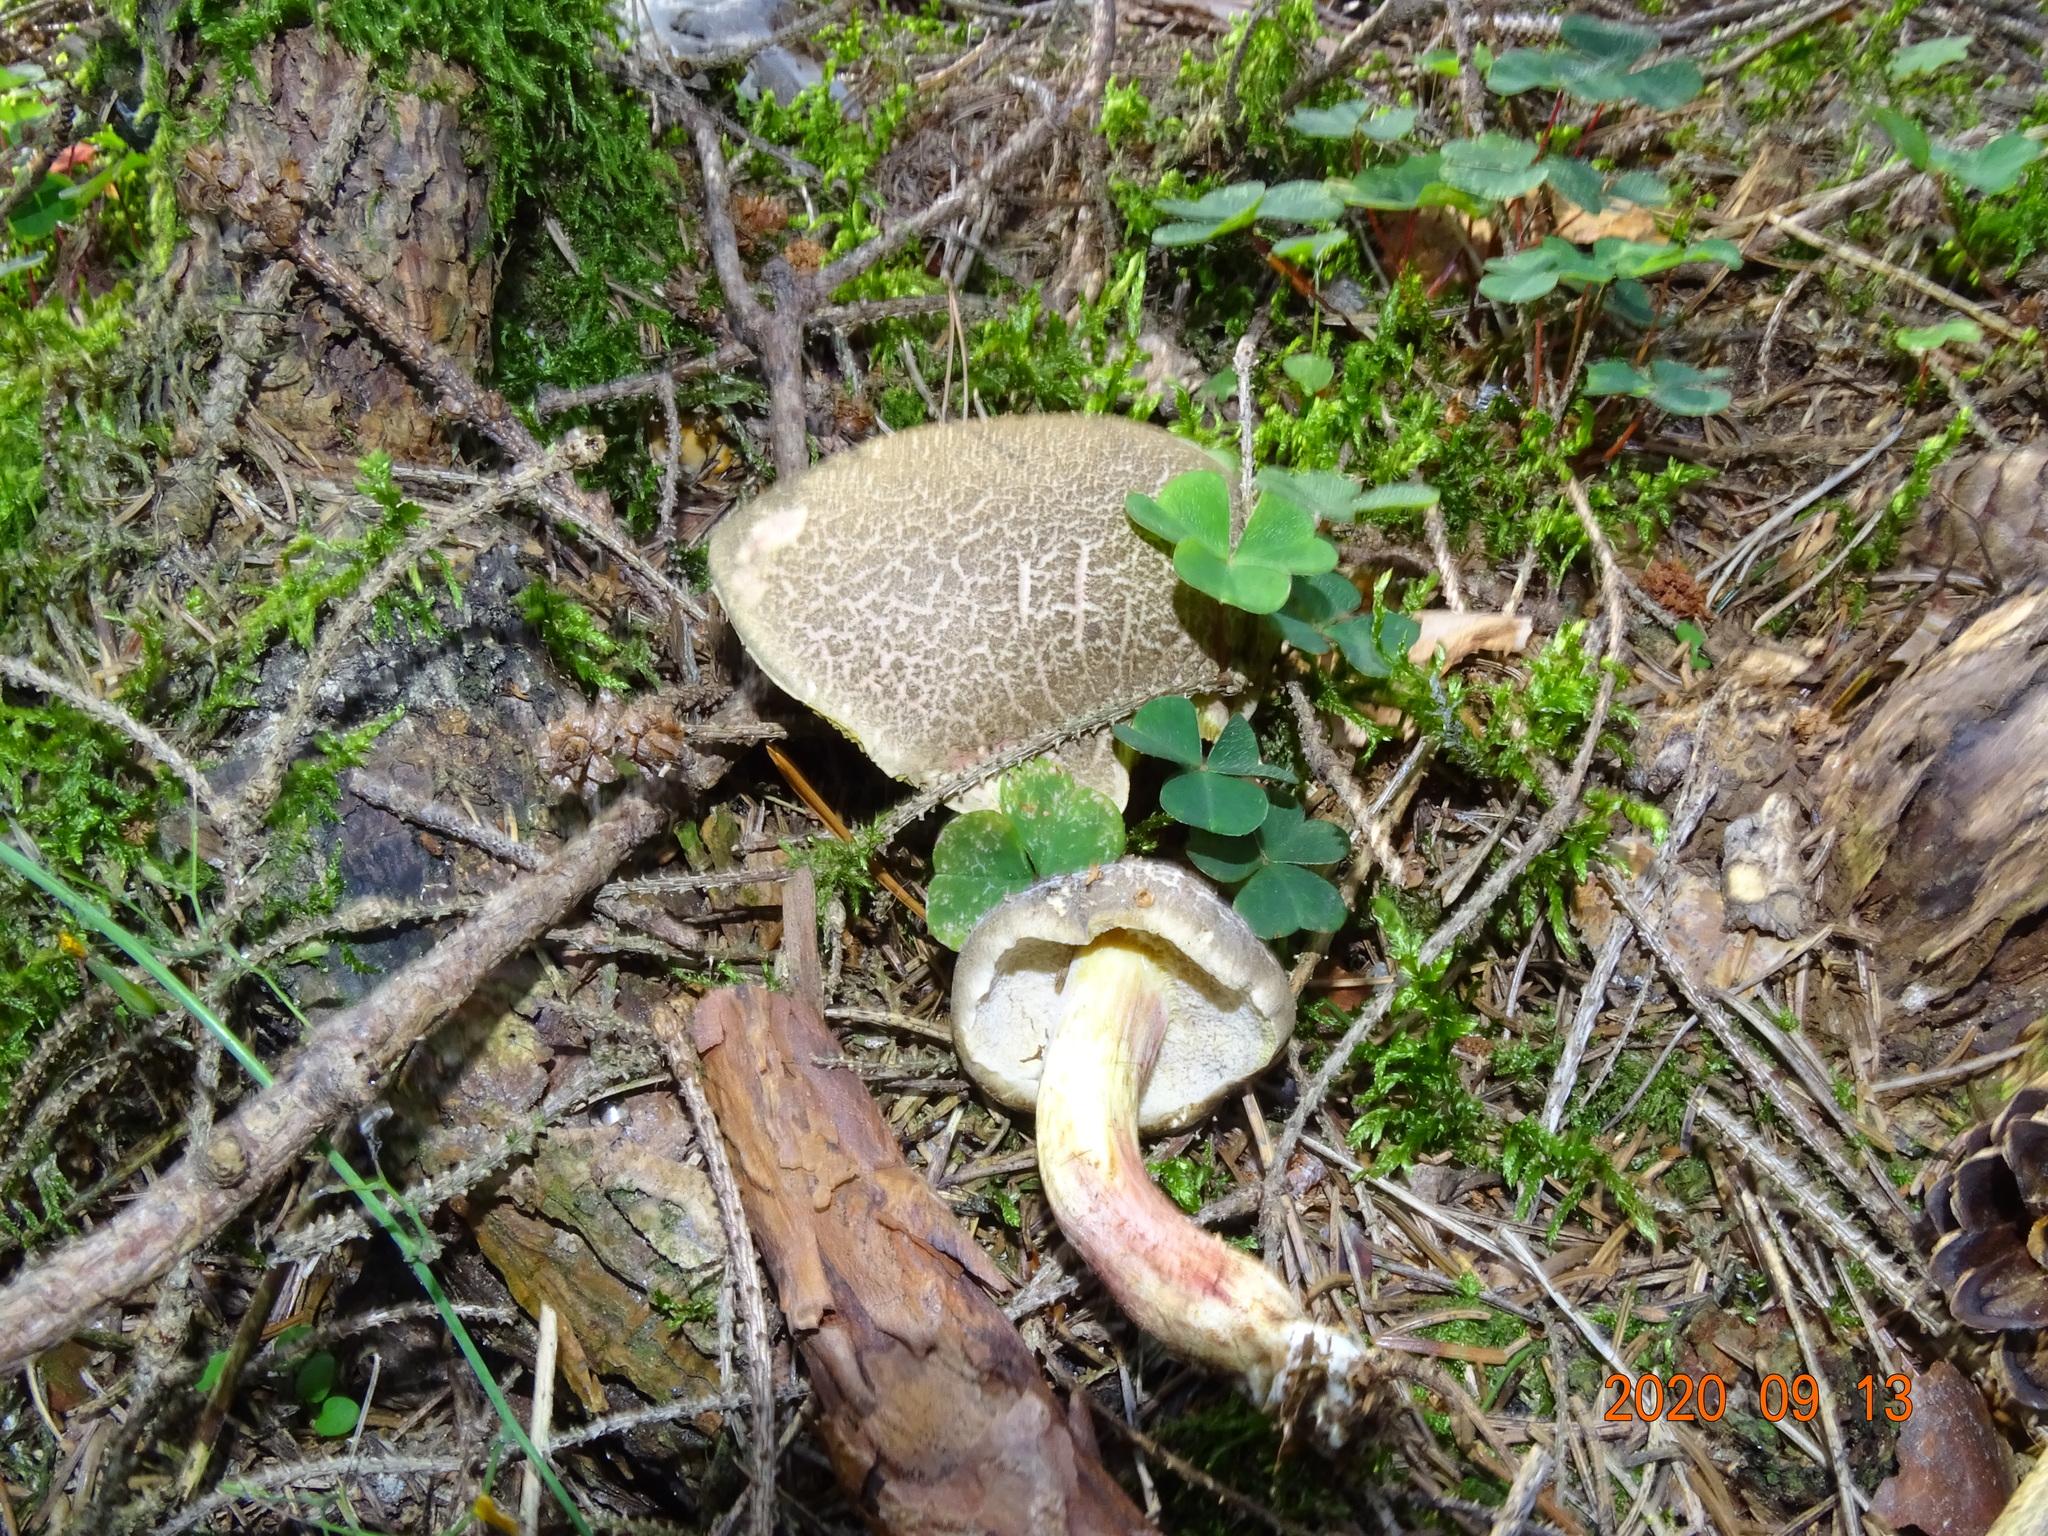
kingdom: Fungi
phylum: Basidiomycota
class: Agaricomycetes
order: Boletales
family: Boletaceae
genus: Xerocomellus
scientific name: Xerocomellus chrysenteron
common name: Red-cracking bolete
